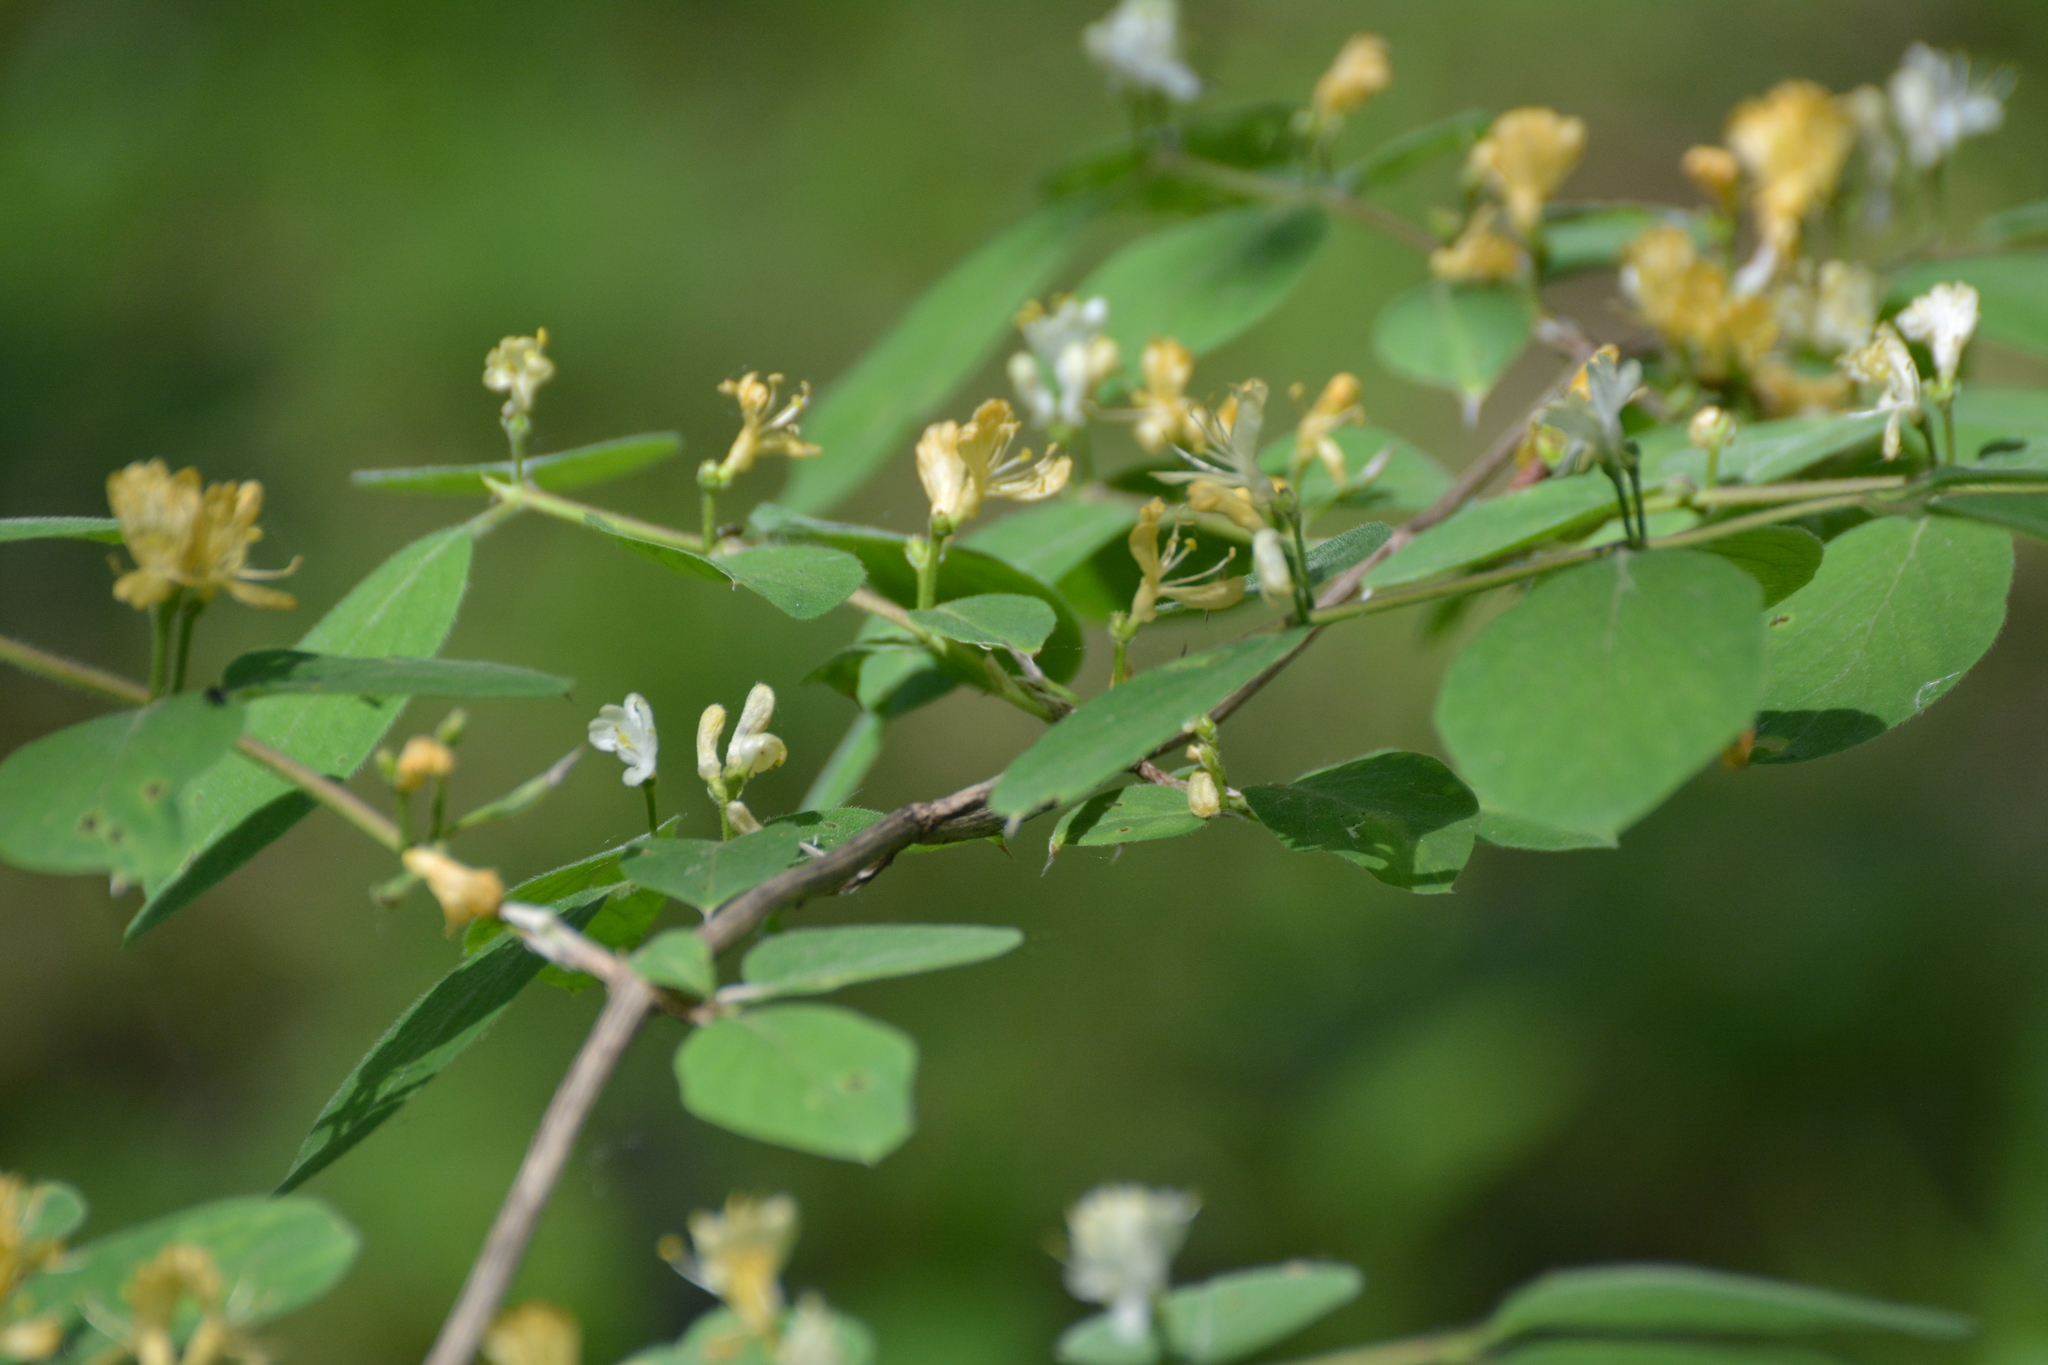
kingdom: Plantae
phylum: Tracheophyta
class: Magnoliopsida
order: Dipsacales
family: Caprifoliaceae
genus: Lonicera
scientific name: Lonicera xylosteum
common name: Fly honeysuckle
